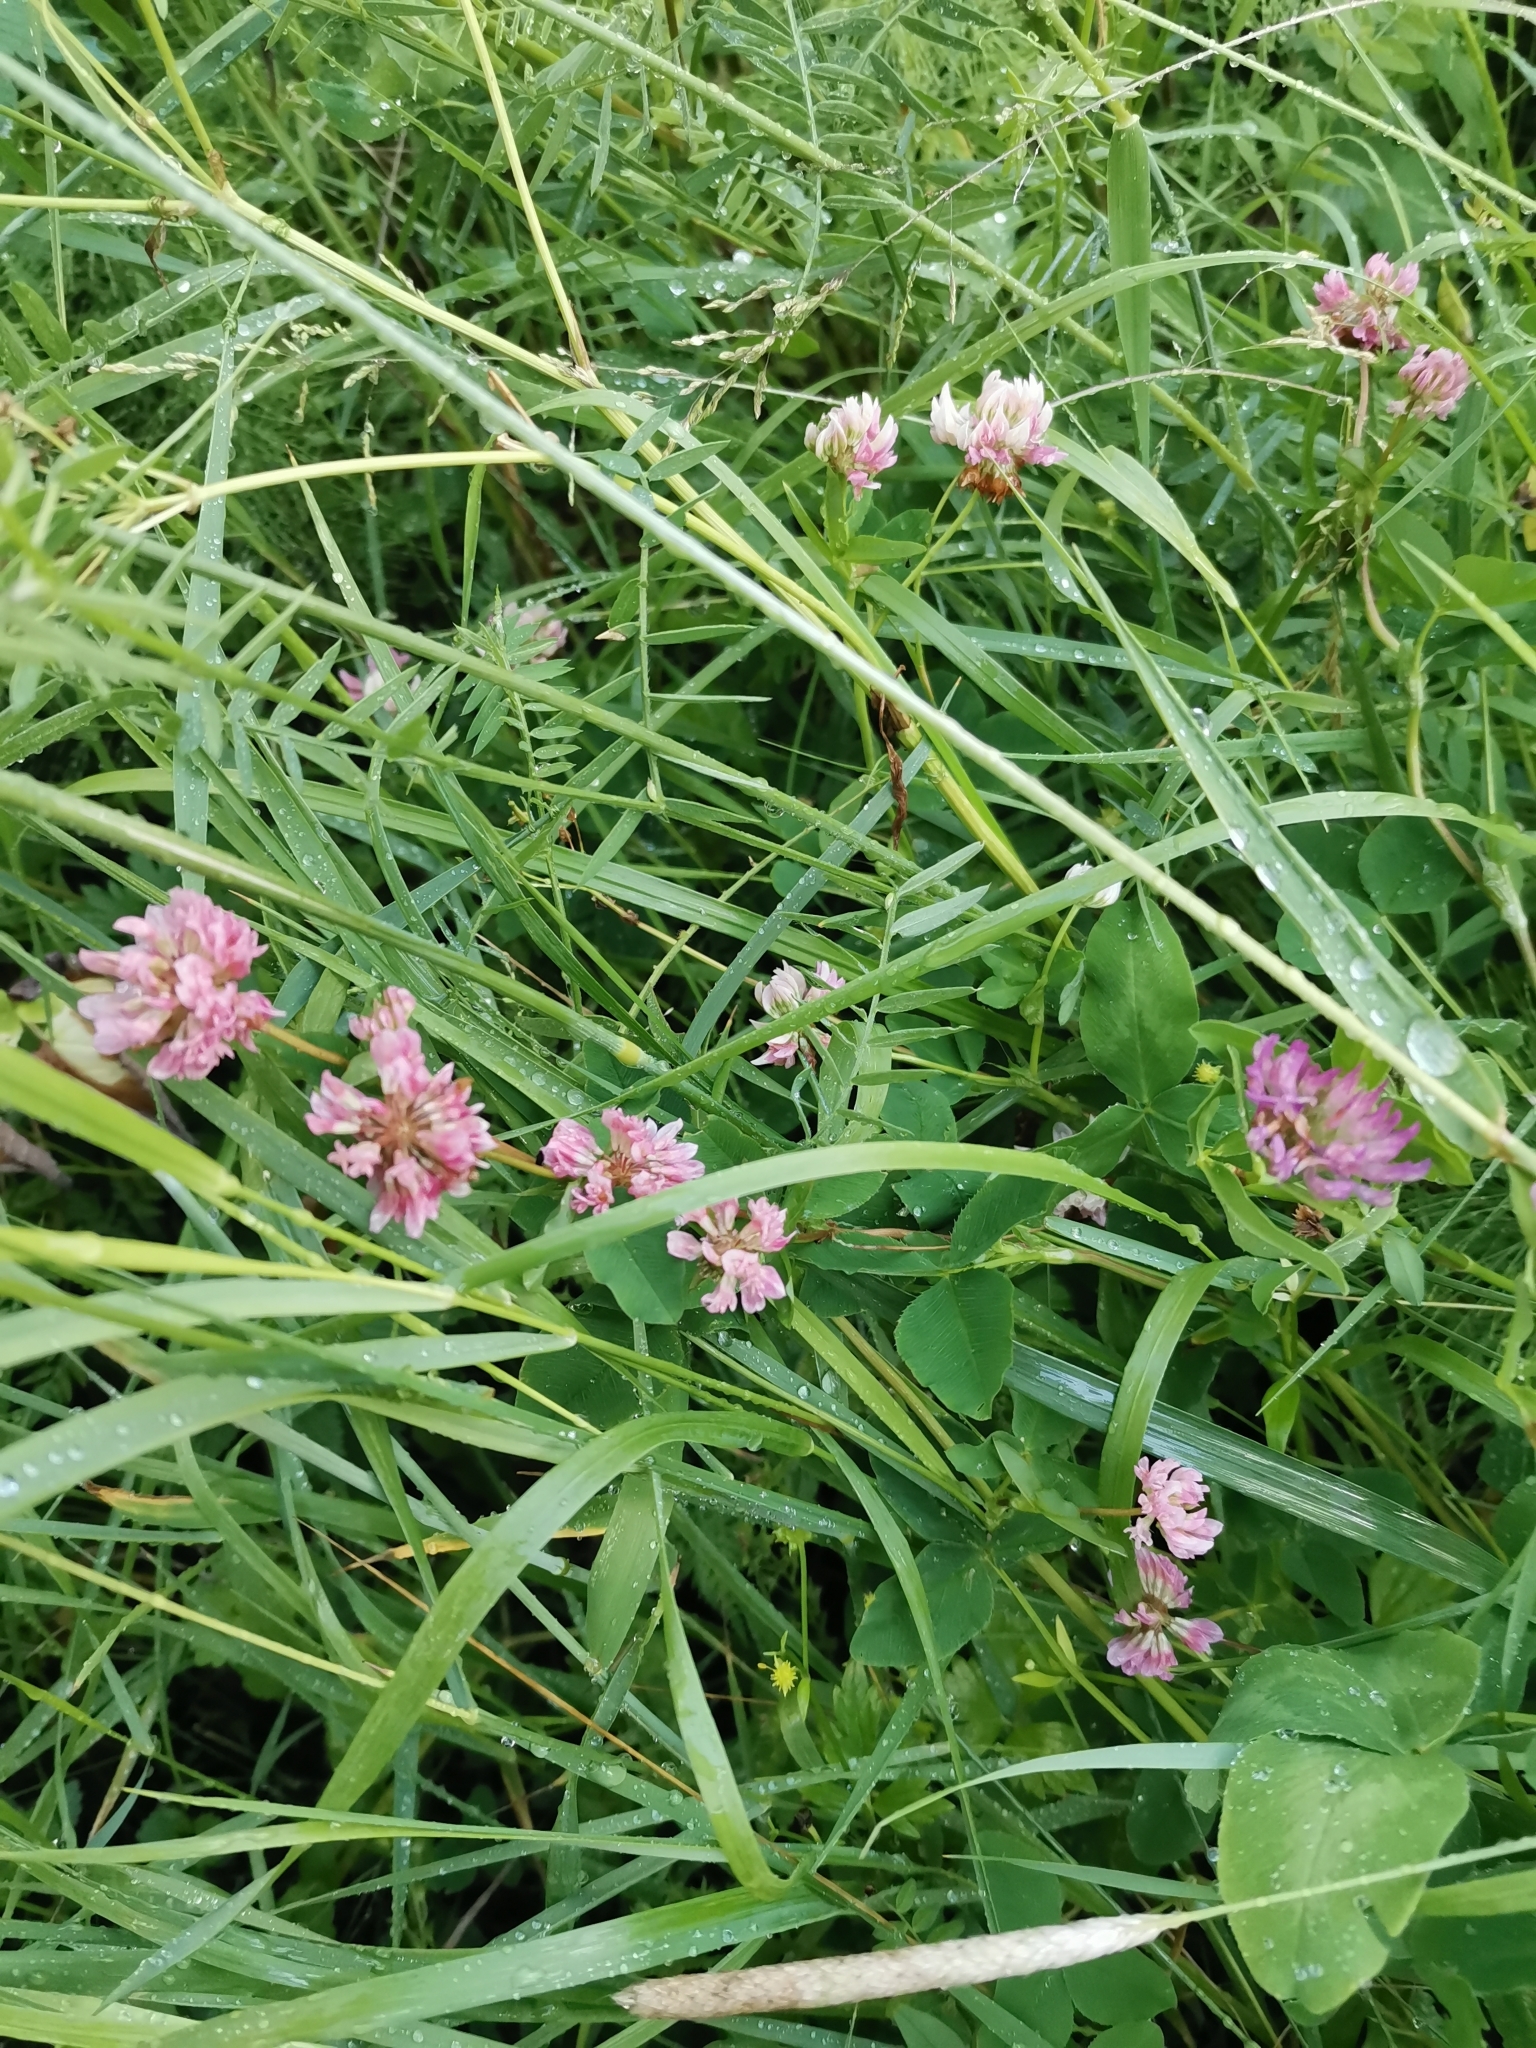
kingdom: Plantae
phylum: Tracheophyta
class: Magnoliopsida
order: Fabales
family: Fabaceae
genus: Trifolium
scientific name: Trifolium hybridum
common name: Alsike clover
